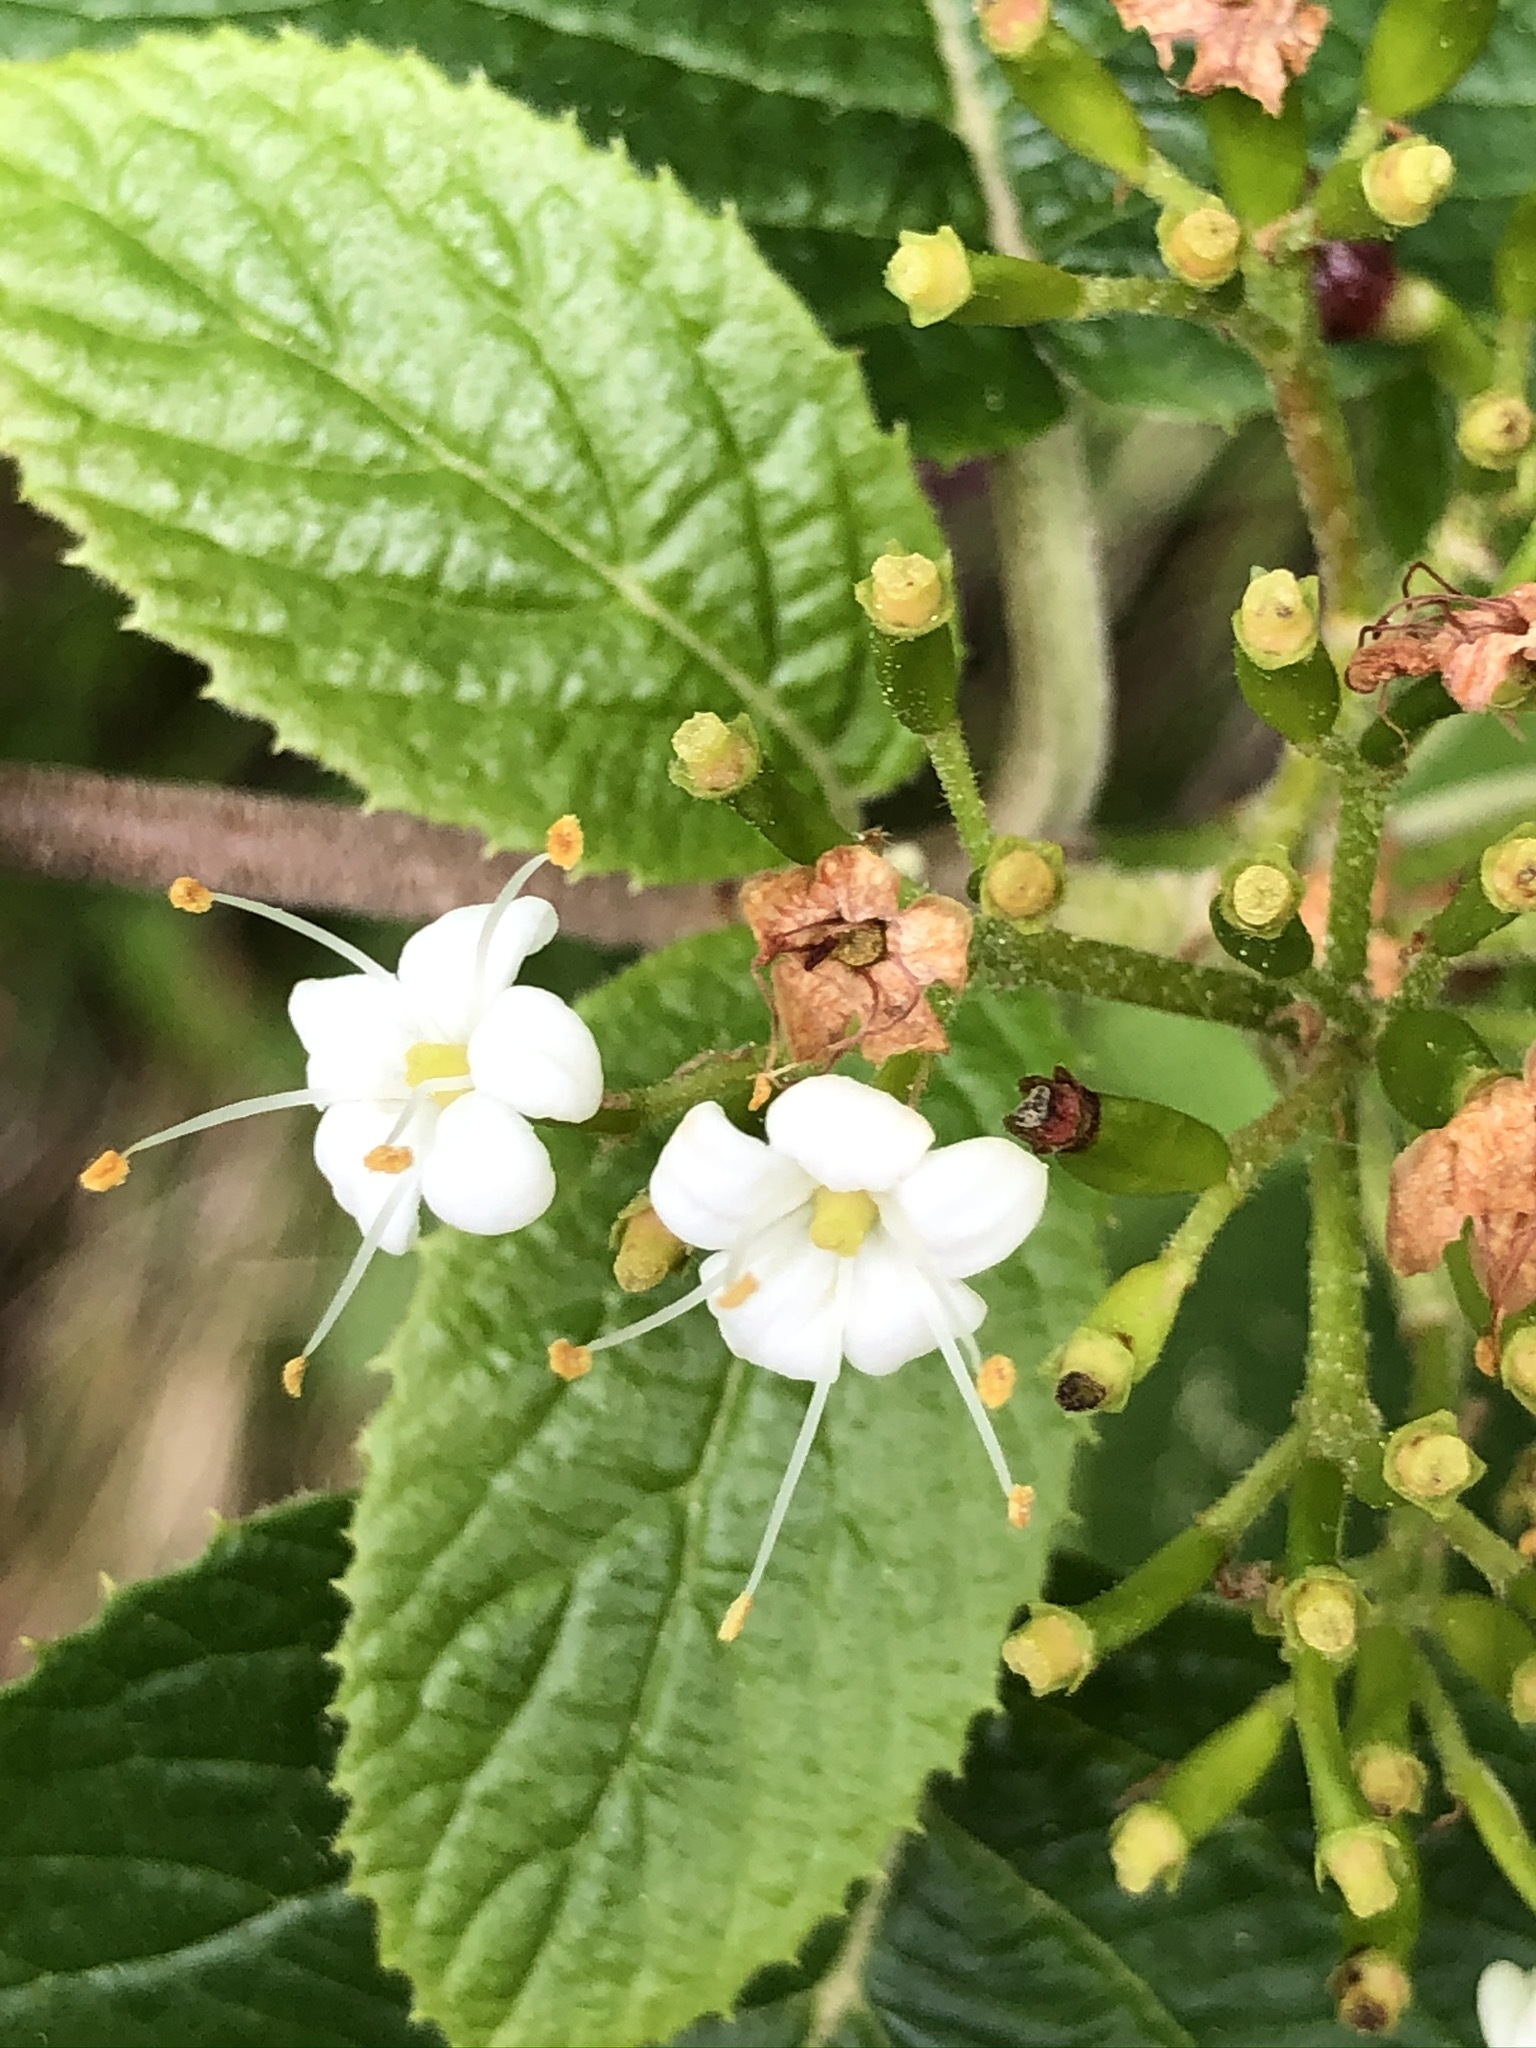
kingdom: Plantae
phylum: Tracheophyta
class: Magnoliopsida
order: Dipsacales
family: Viburnaceae
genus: Viburnum
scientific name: Viburnum lantana
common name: Wayfaring tree
